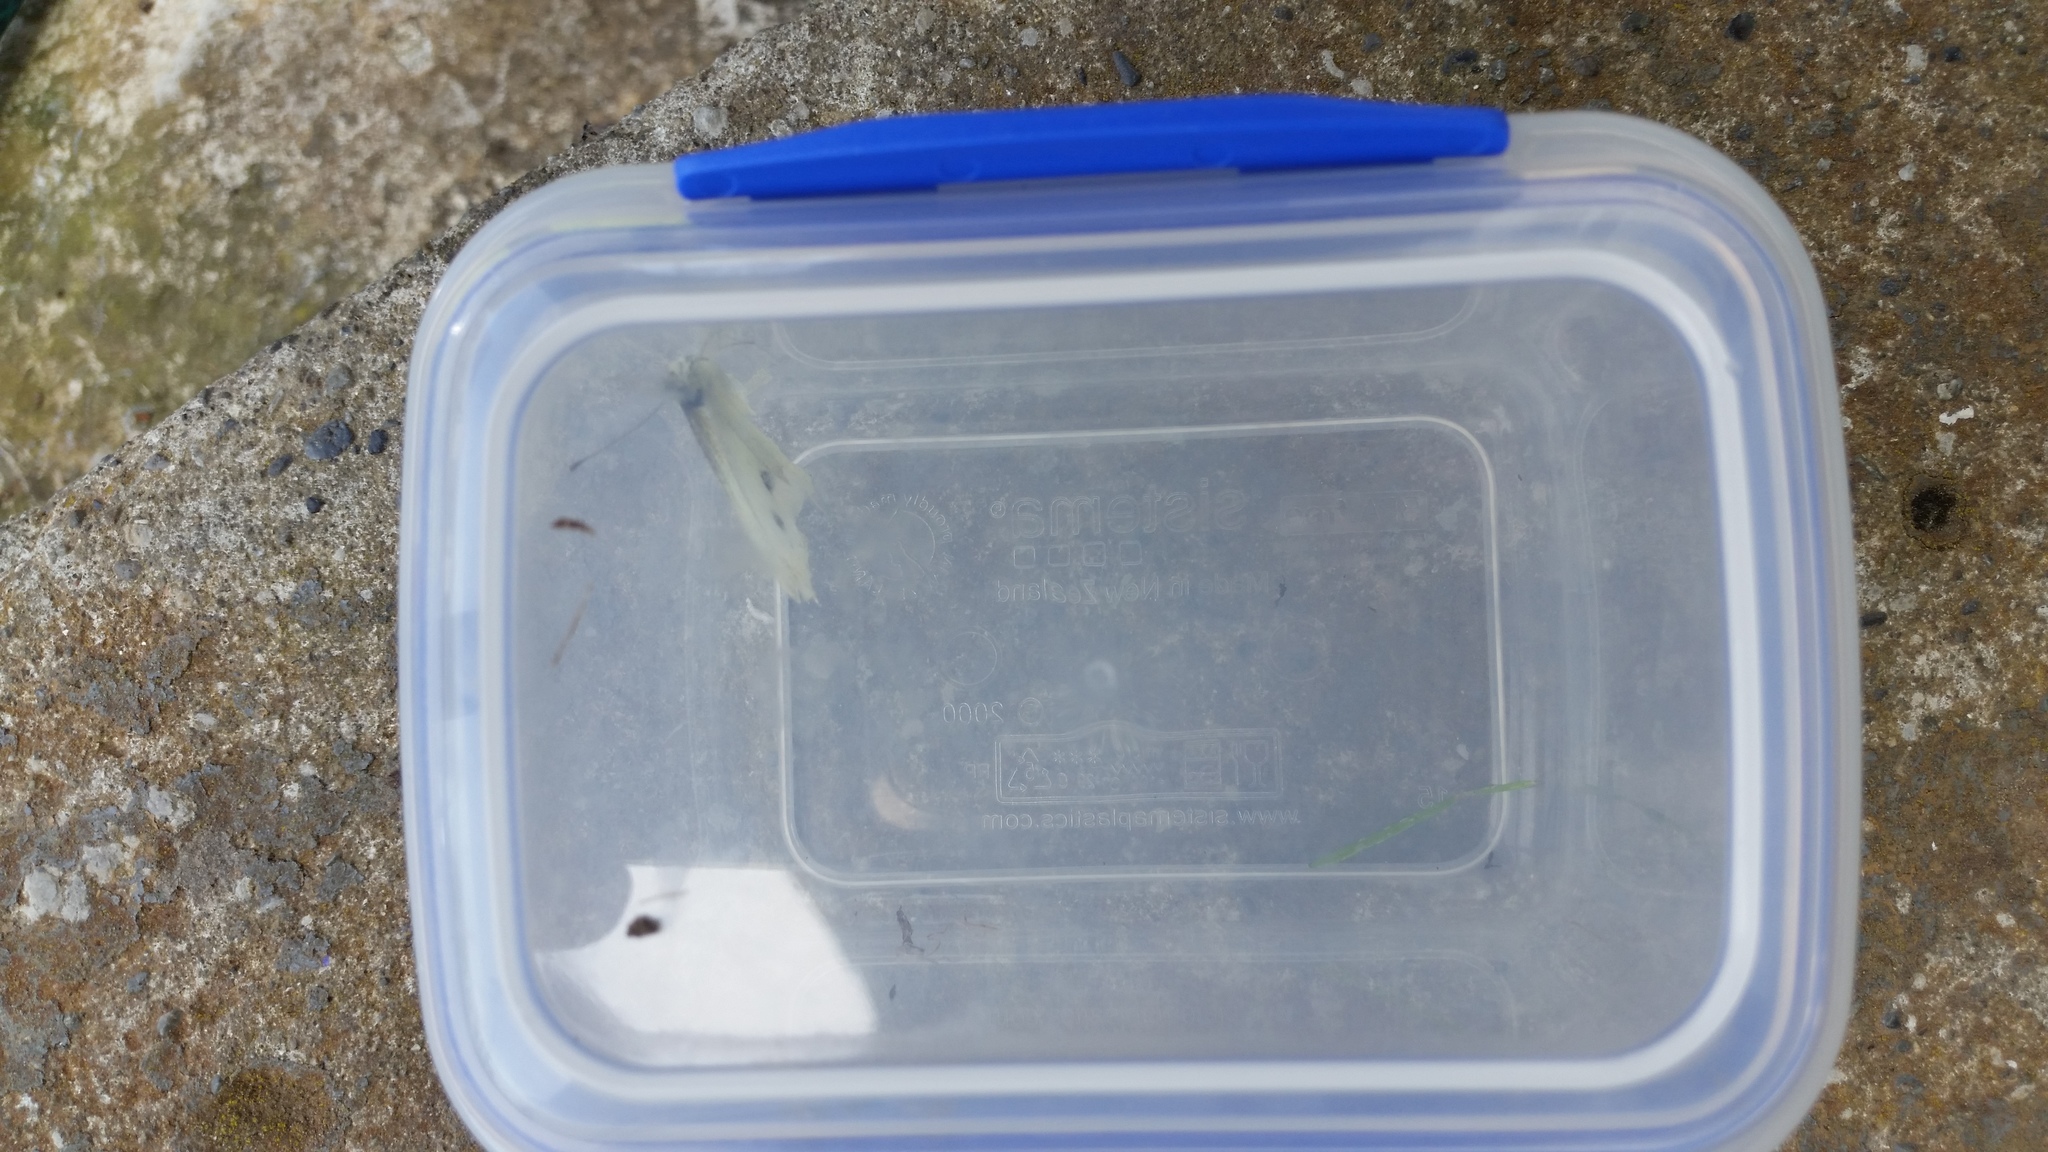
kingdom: Animalia
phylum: Arthropoda
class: Insecta
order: Lepidoptera
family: Pieridae
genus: Pieris
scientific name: Pieris rapae
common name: Small white
